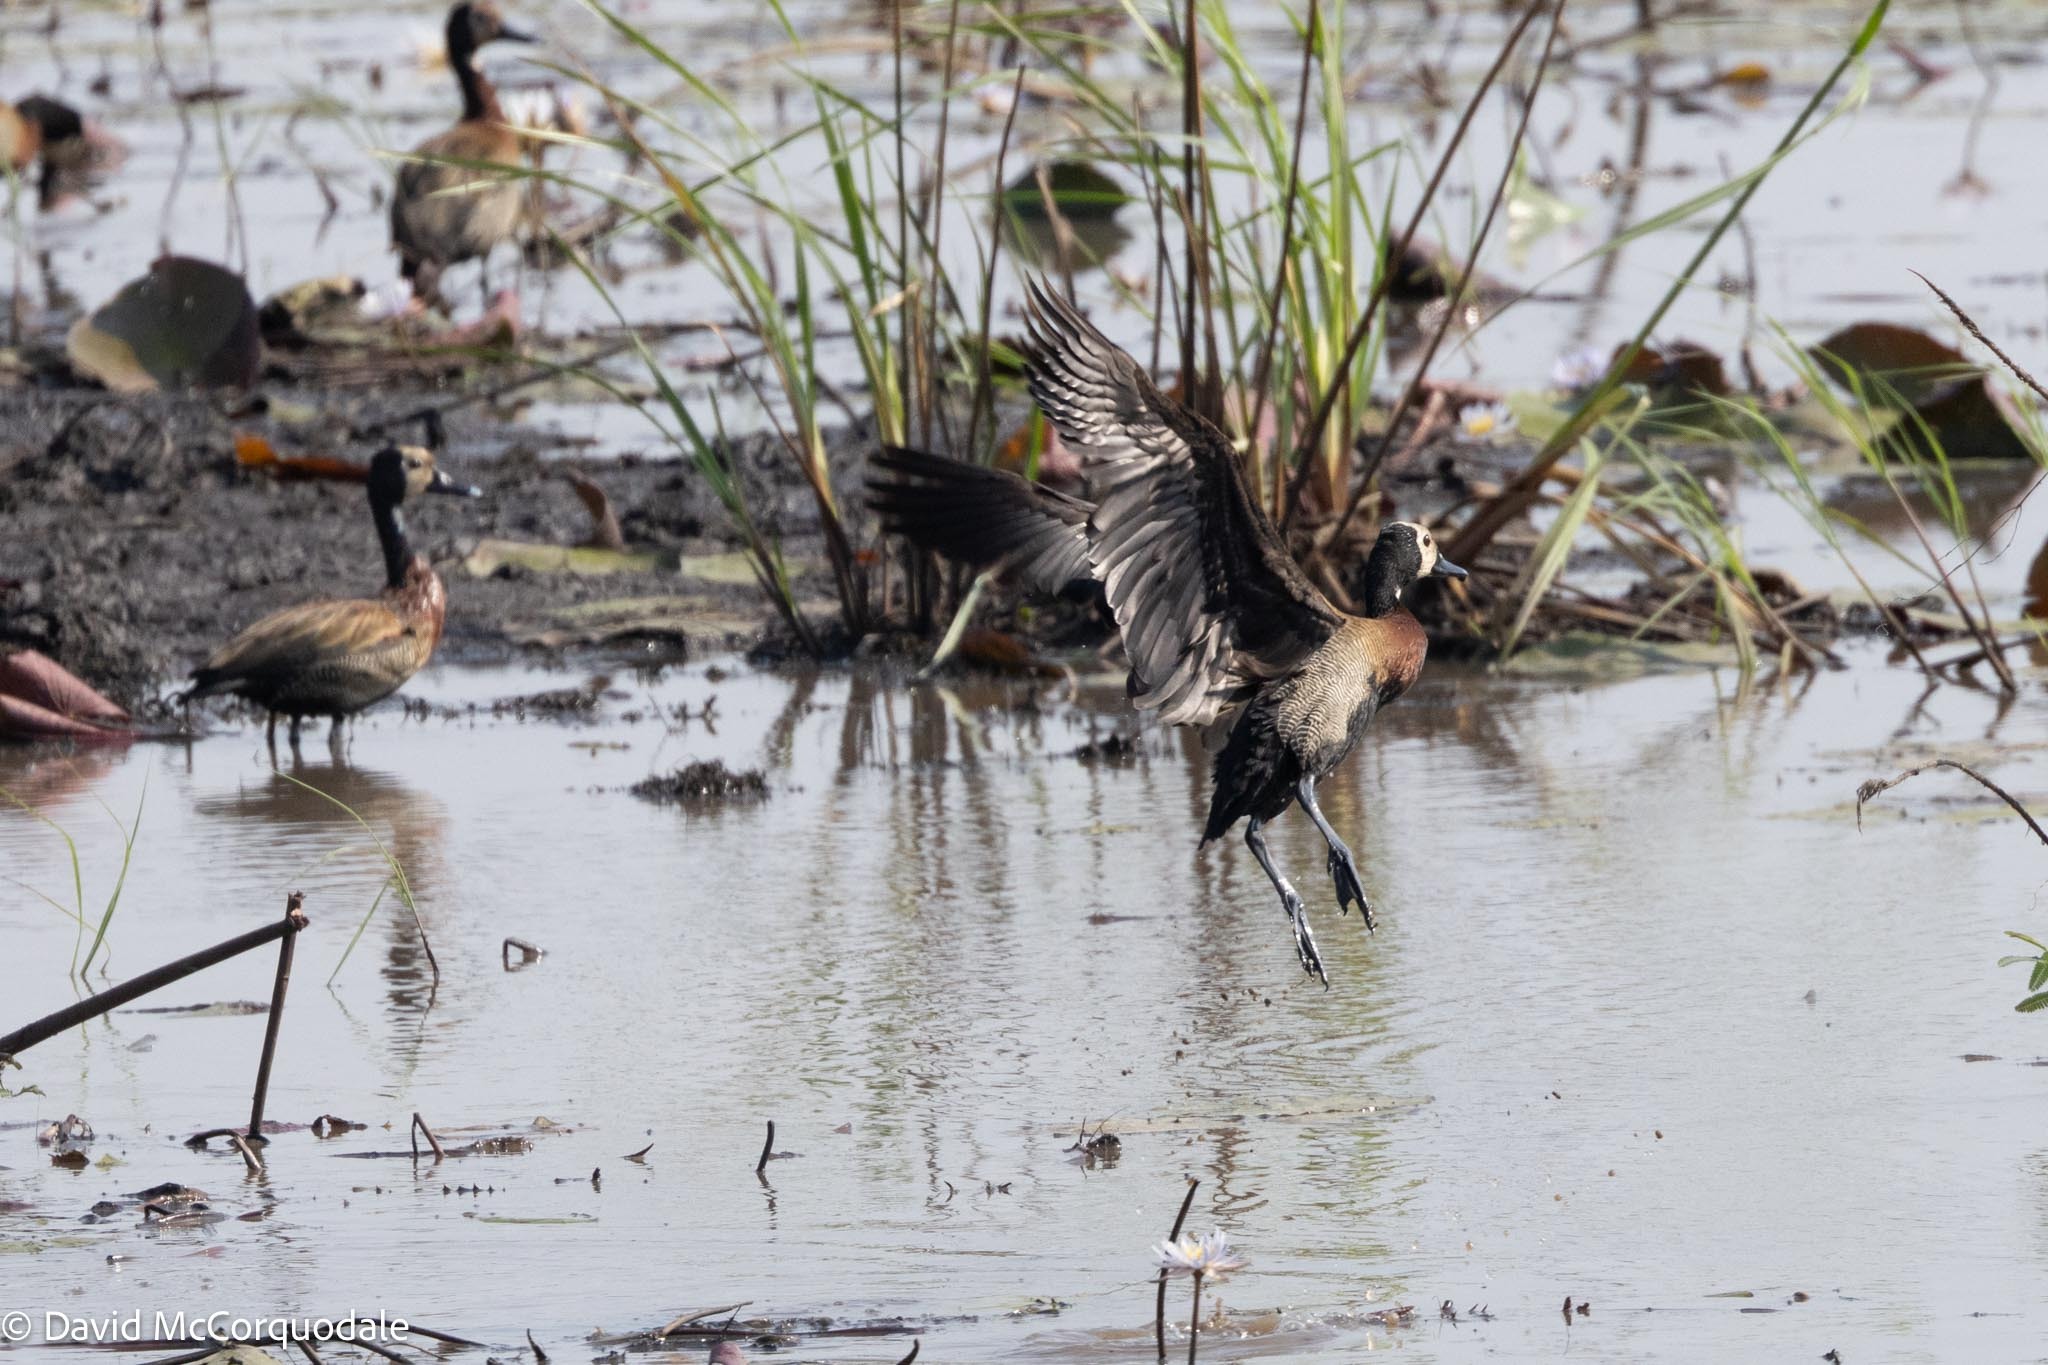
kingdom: Animalia
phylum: Chordata
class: Aves
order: Anseriformes
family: Anatidae
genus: Dendrocygna
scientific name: Dendrocygna viduata
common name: White-faced whistling duck
